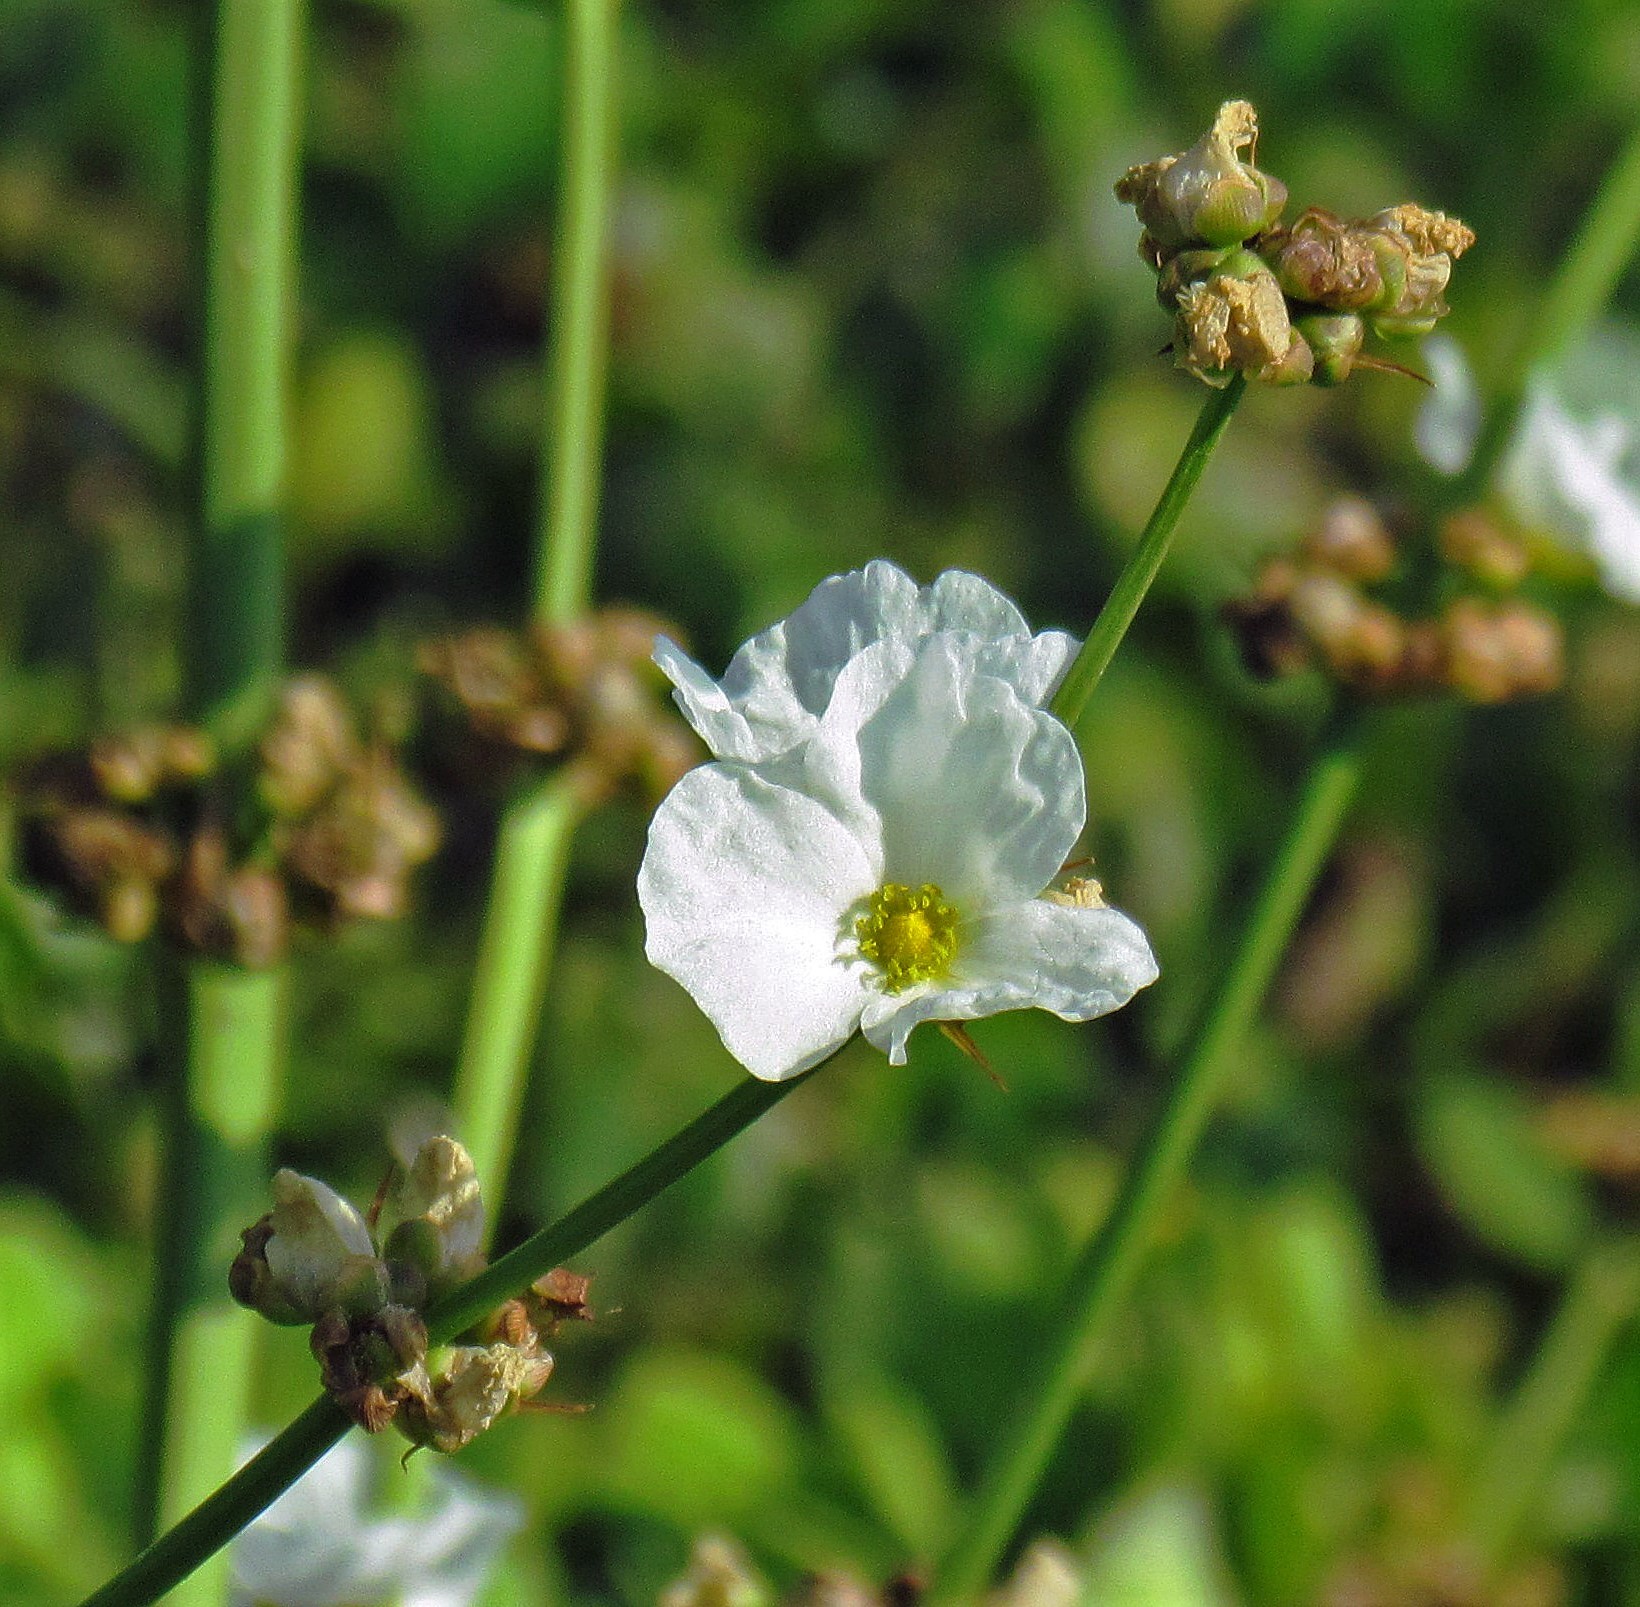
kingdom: Plantae
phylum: Tracheophyta
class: Liliopsida
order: Alismatales
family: Alismataceae
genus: Aquarius
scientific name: Aquarius grandiflorus
